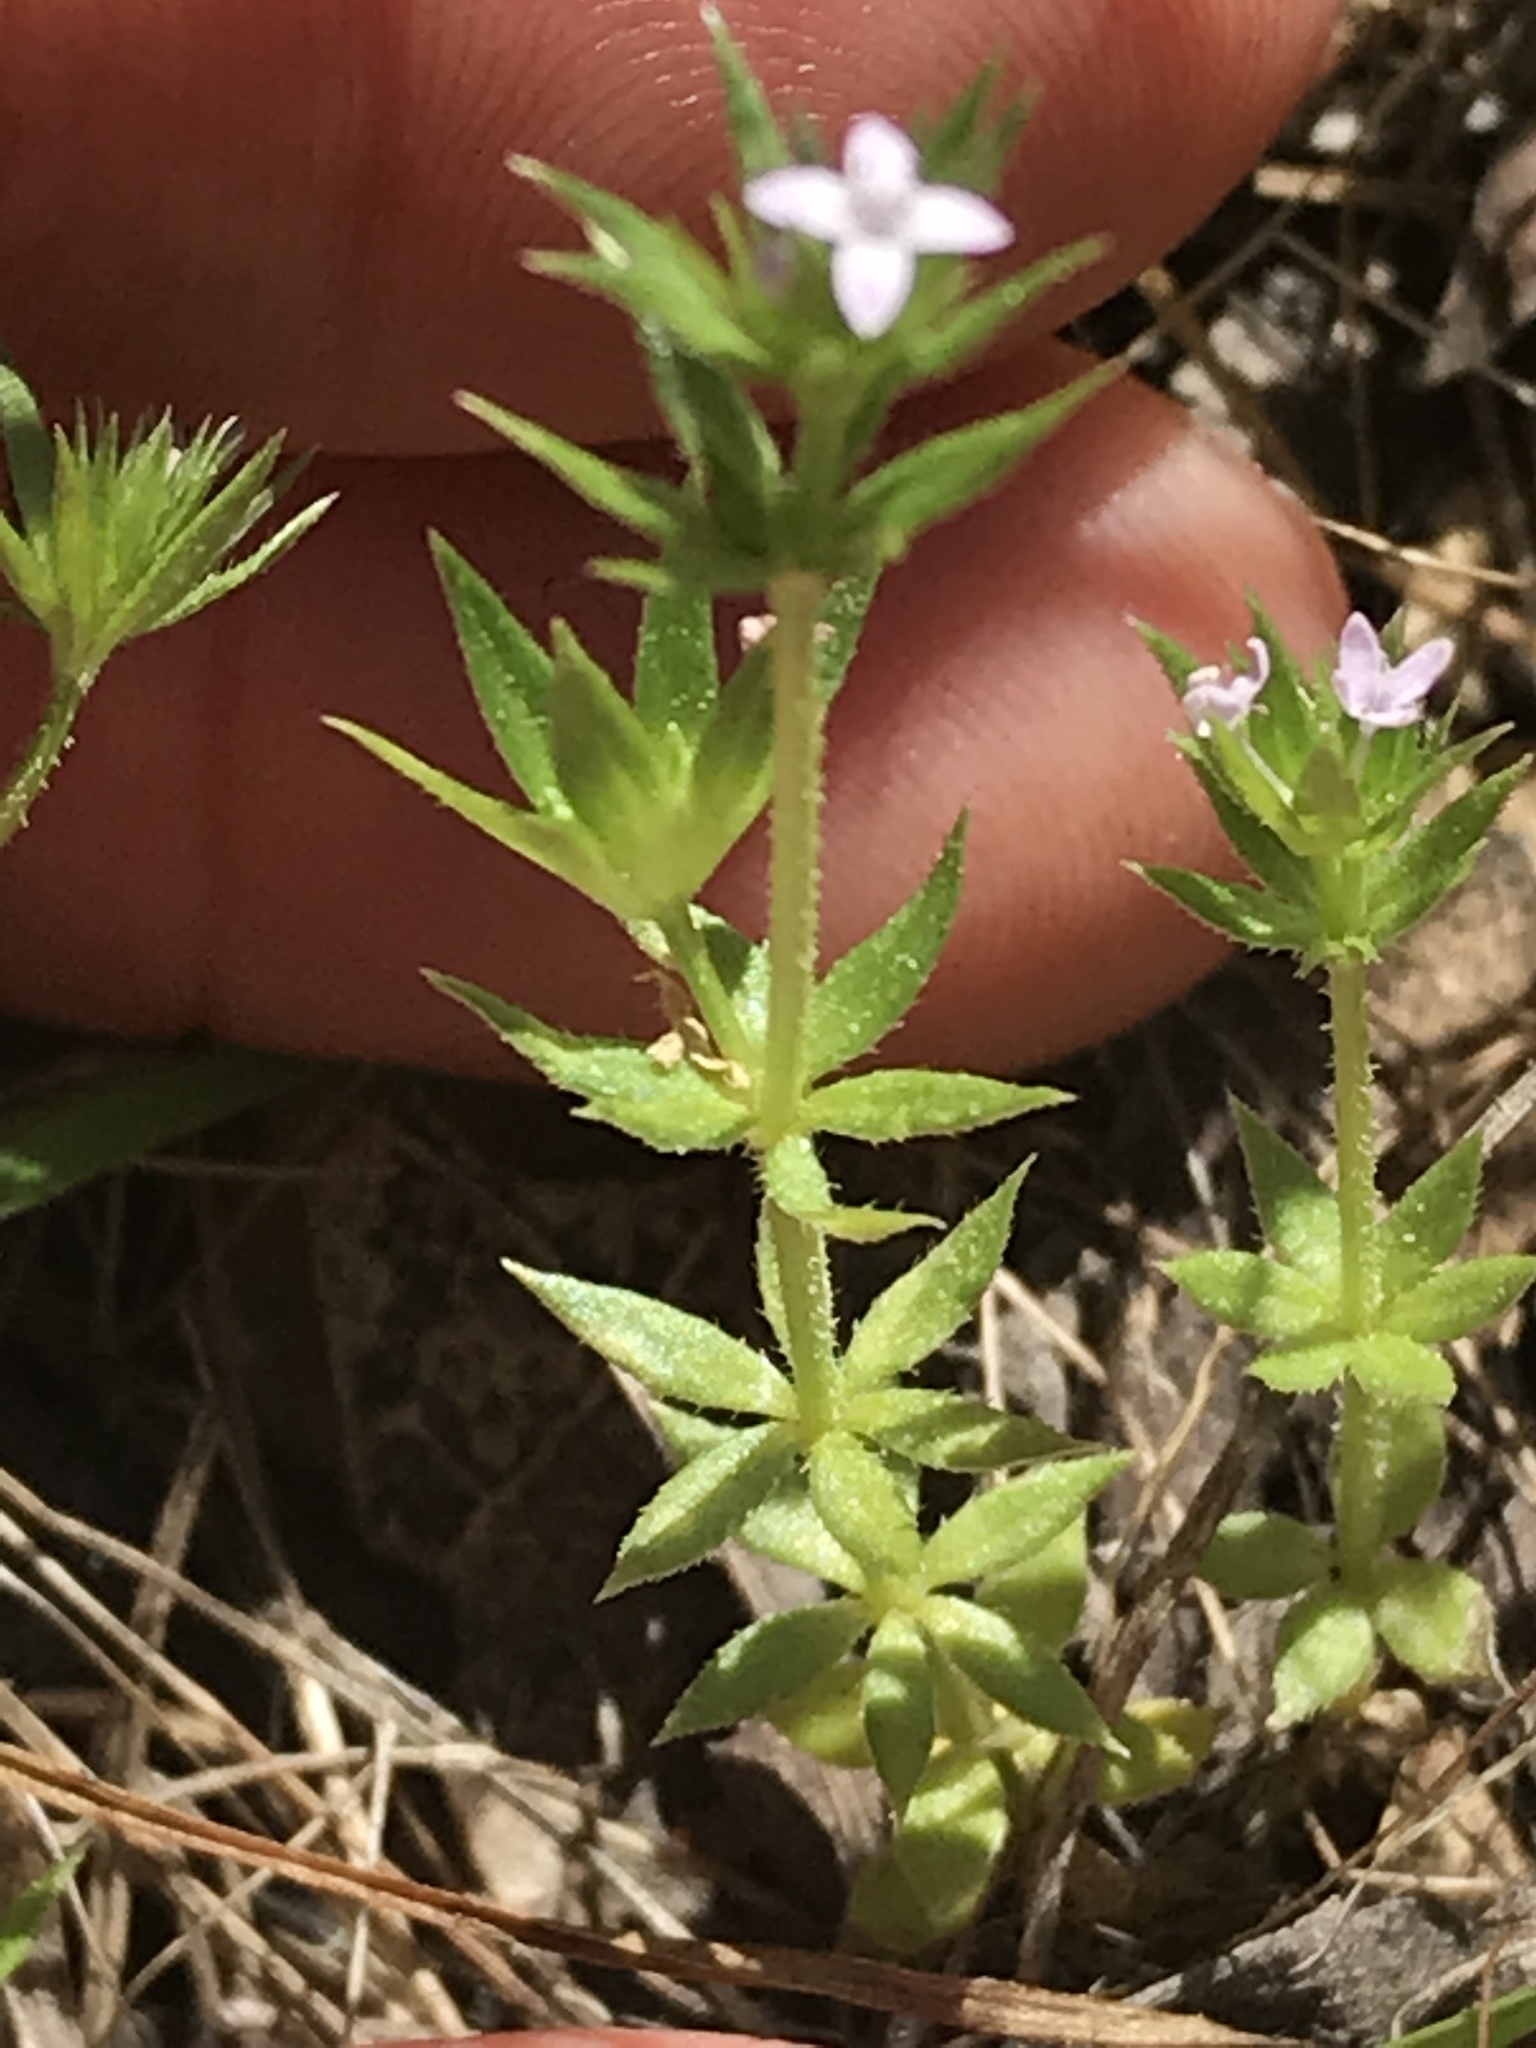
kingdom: Plantae
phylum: Tracheophyta
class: Magnoliopsida
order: Gentianales
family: Rubiaceae
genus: Sherardia
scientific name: Sherardia arvensis
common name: Field madder
